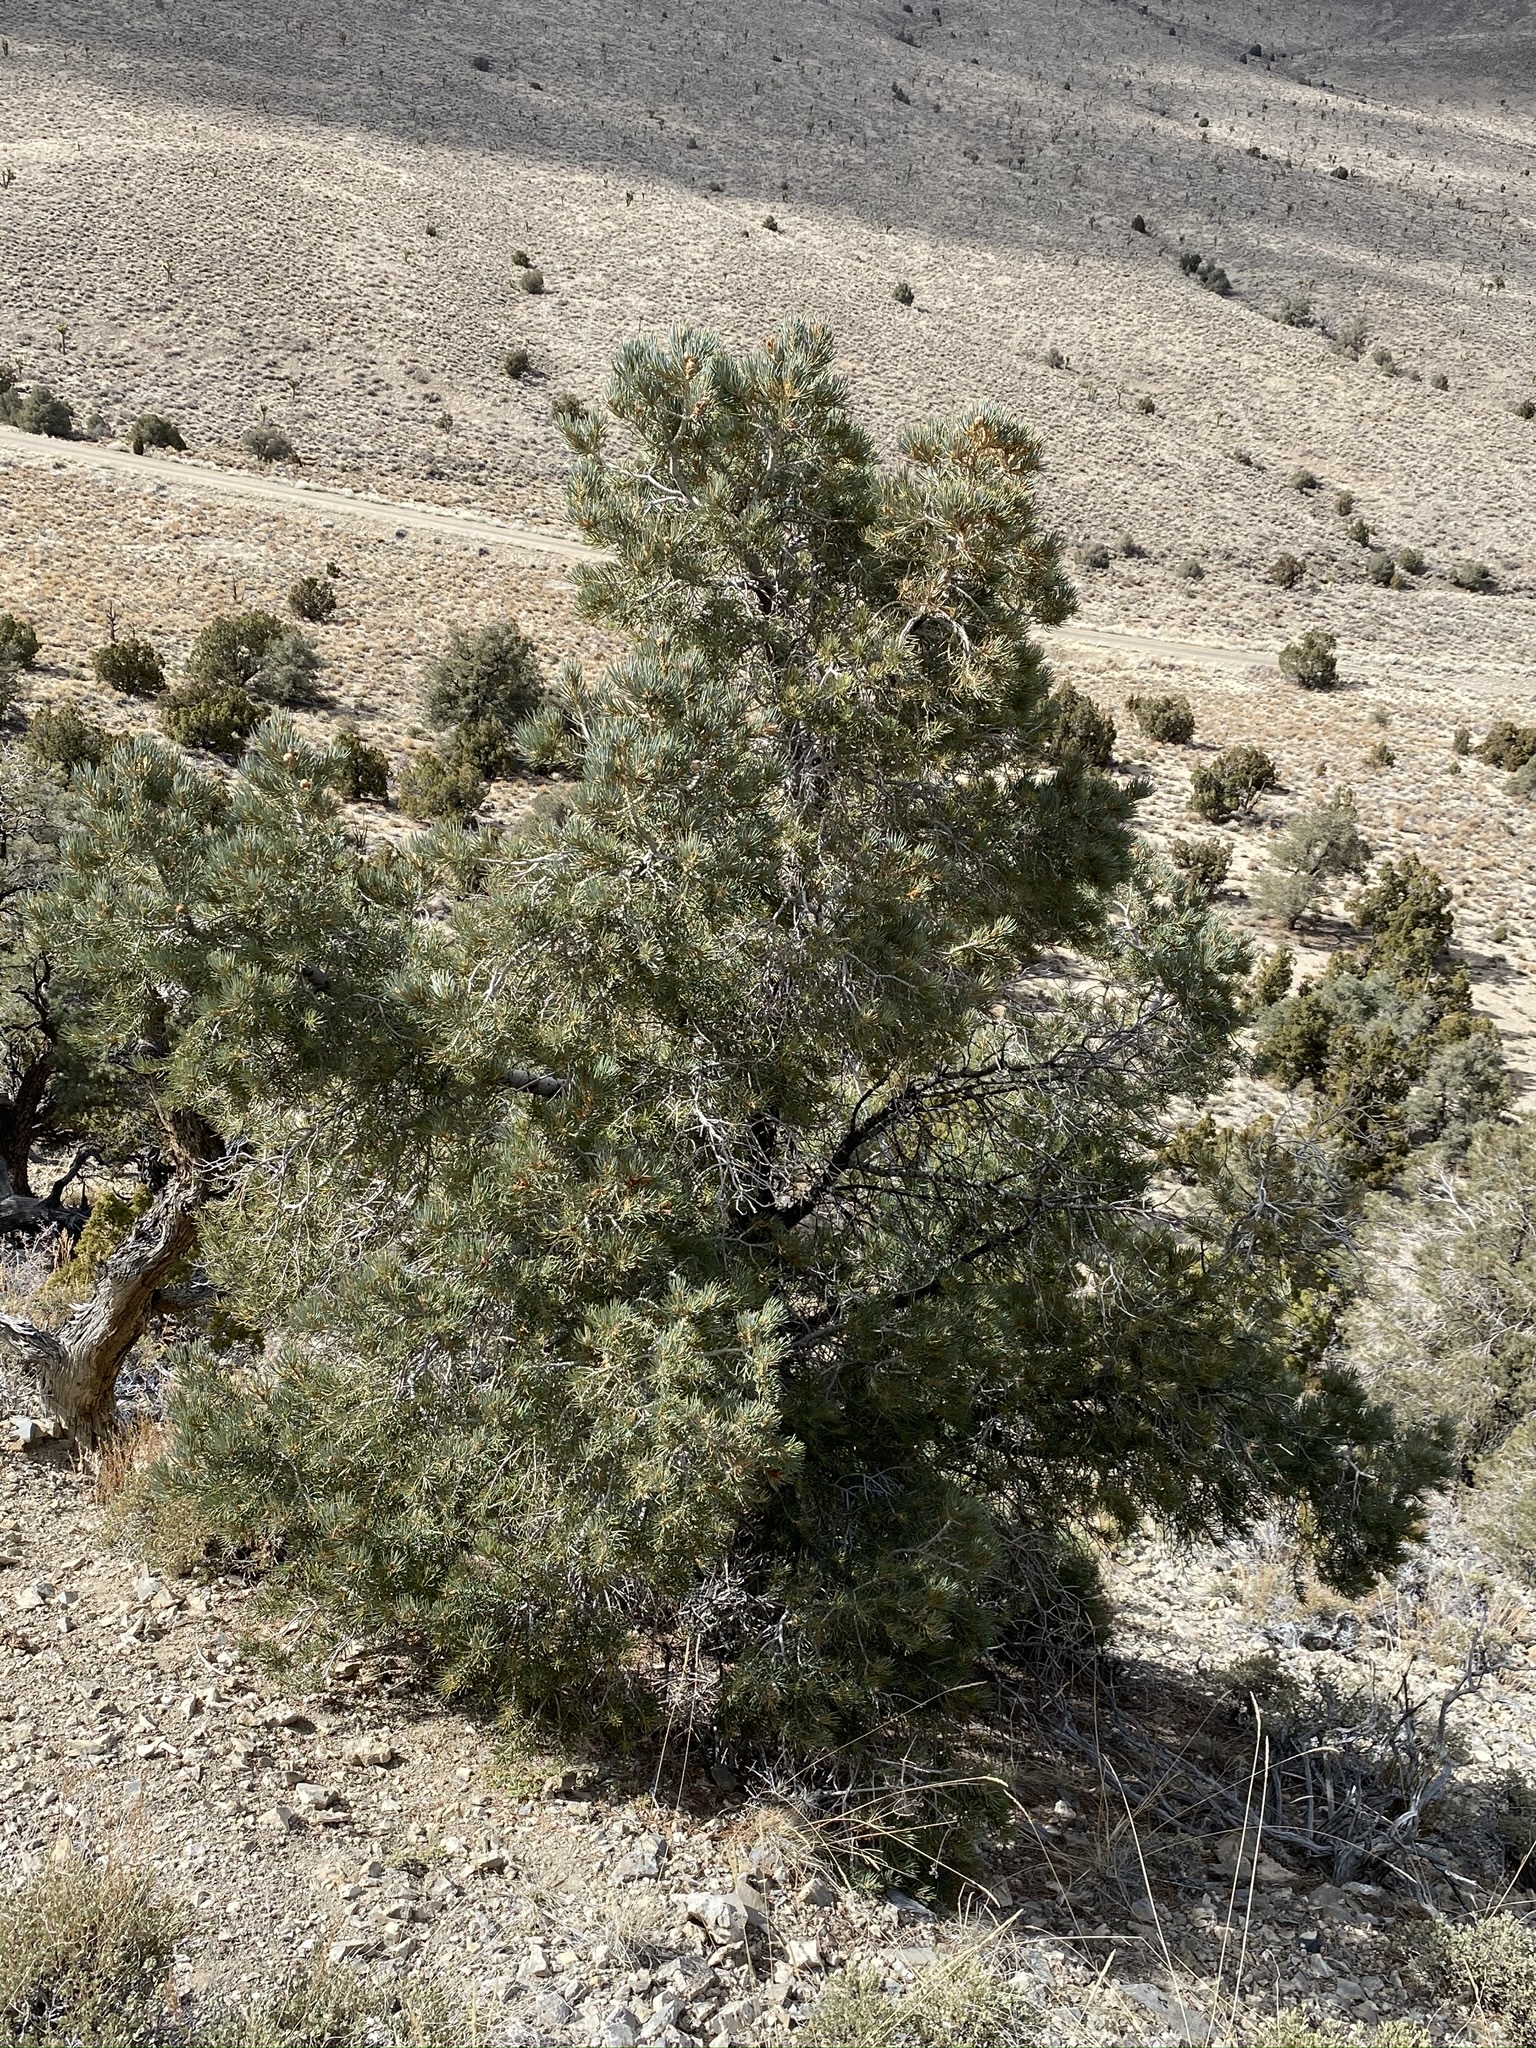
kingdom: Plantae
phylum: Tracheophyta
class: Pinopsida
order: Pinales
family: Pinaceae
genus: Pinus
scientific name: Pinus monophylla
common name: One-leaved nut pine
